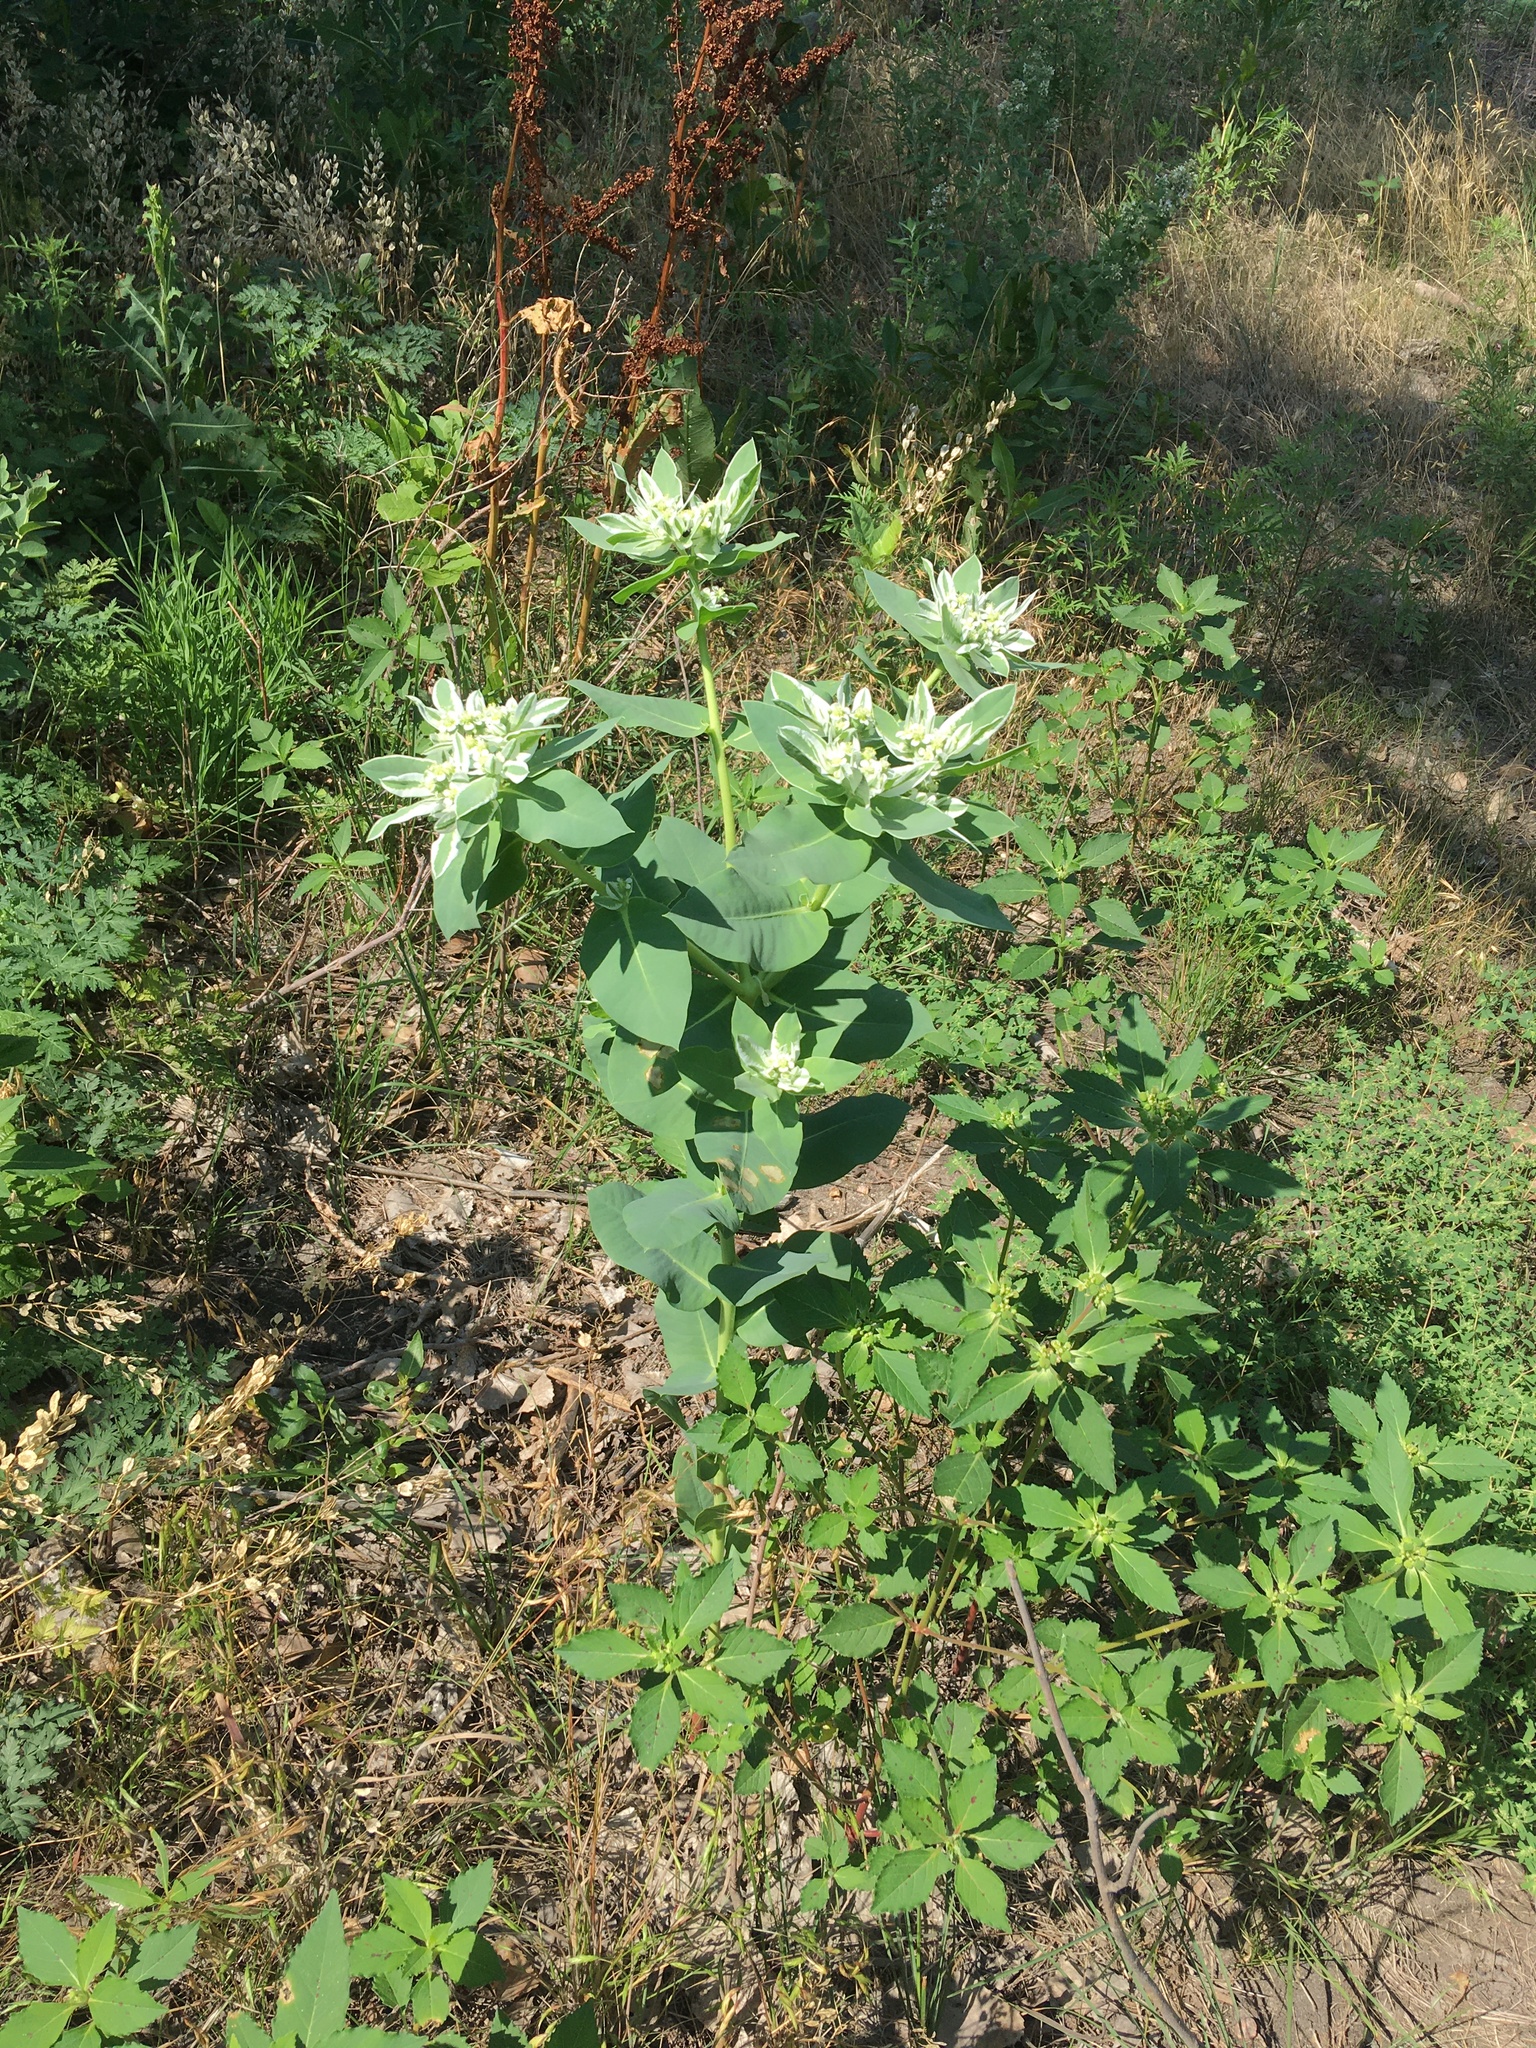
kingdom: Plantae
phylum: Tracheophyta
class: Magnoliopsida
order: Malpighiales
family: Euphorbiaceae
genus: Euphorbia
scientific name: Euphorbia marginata
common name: Ghostweed
